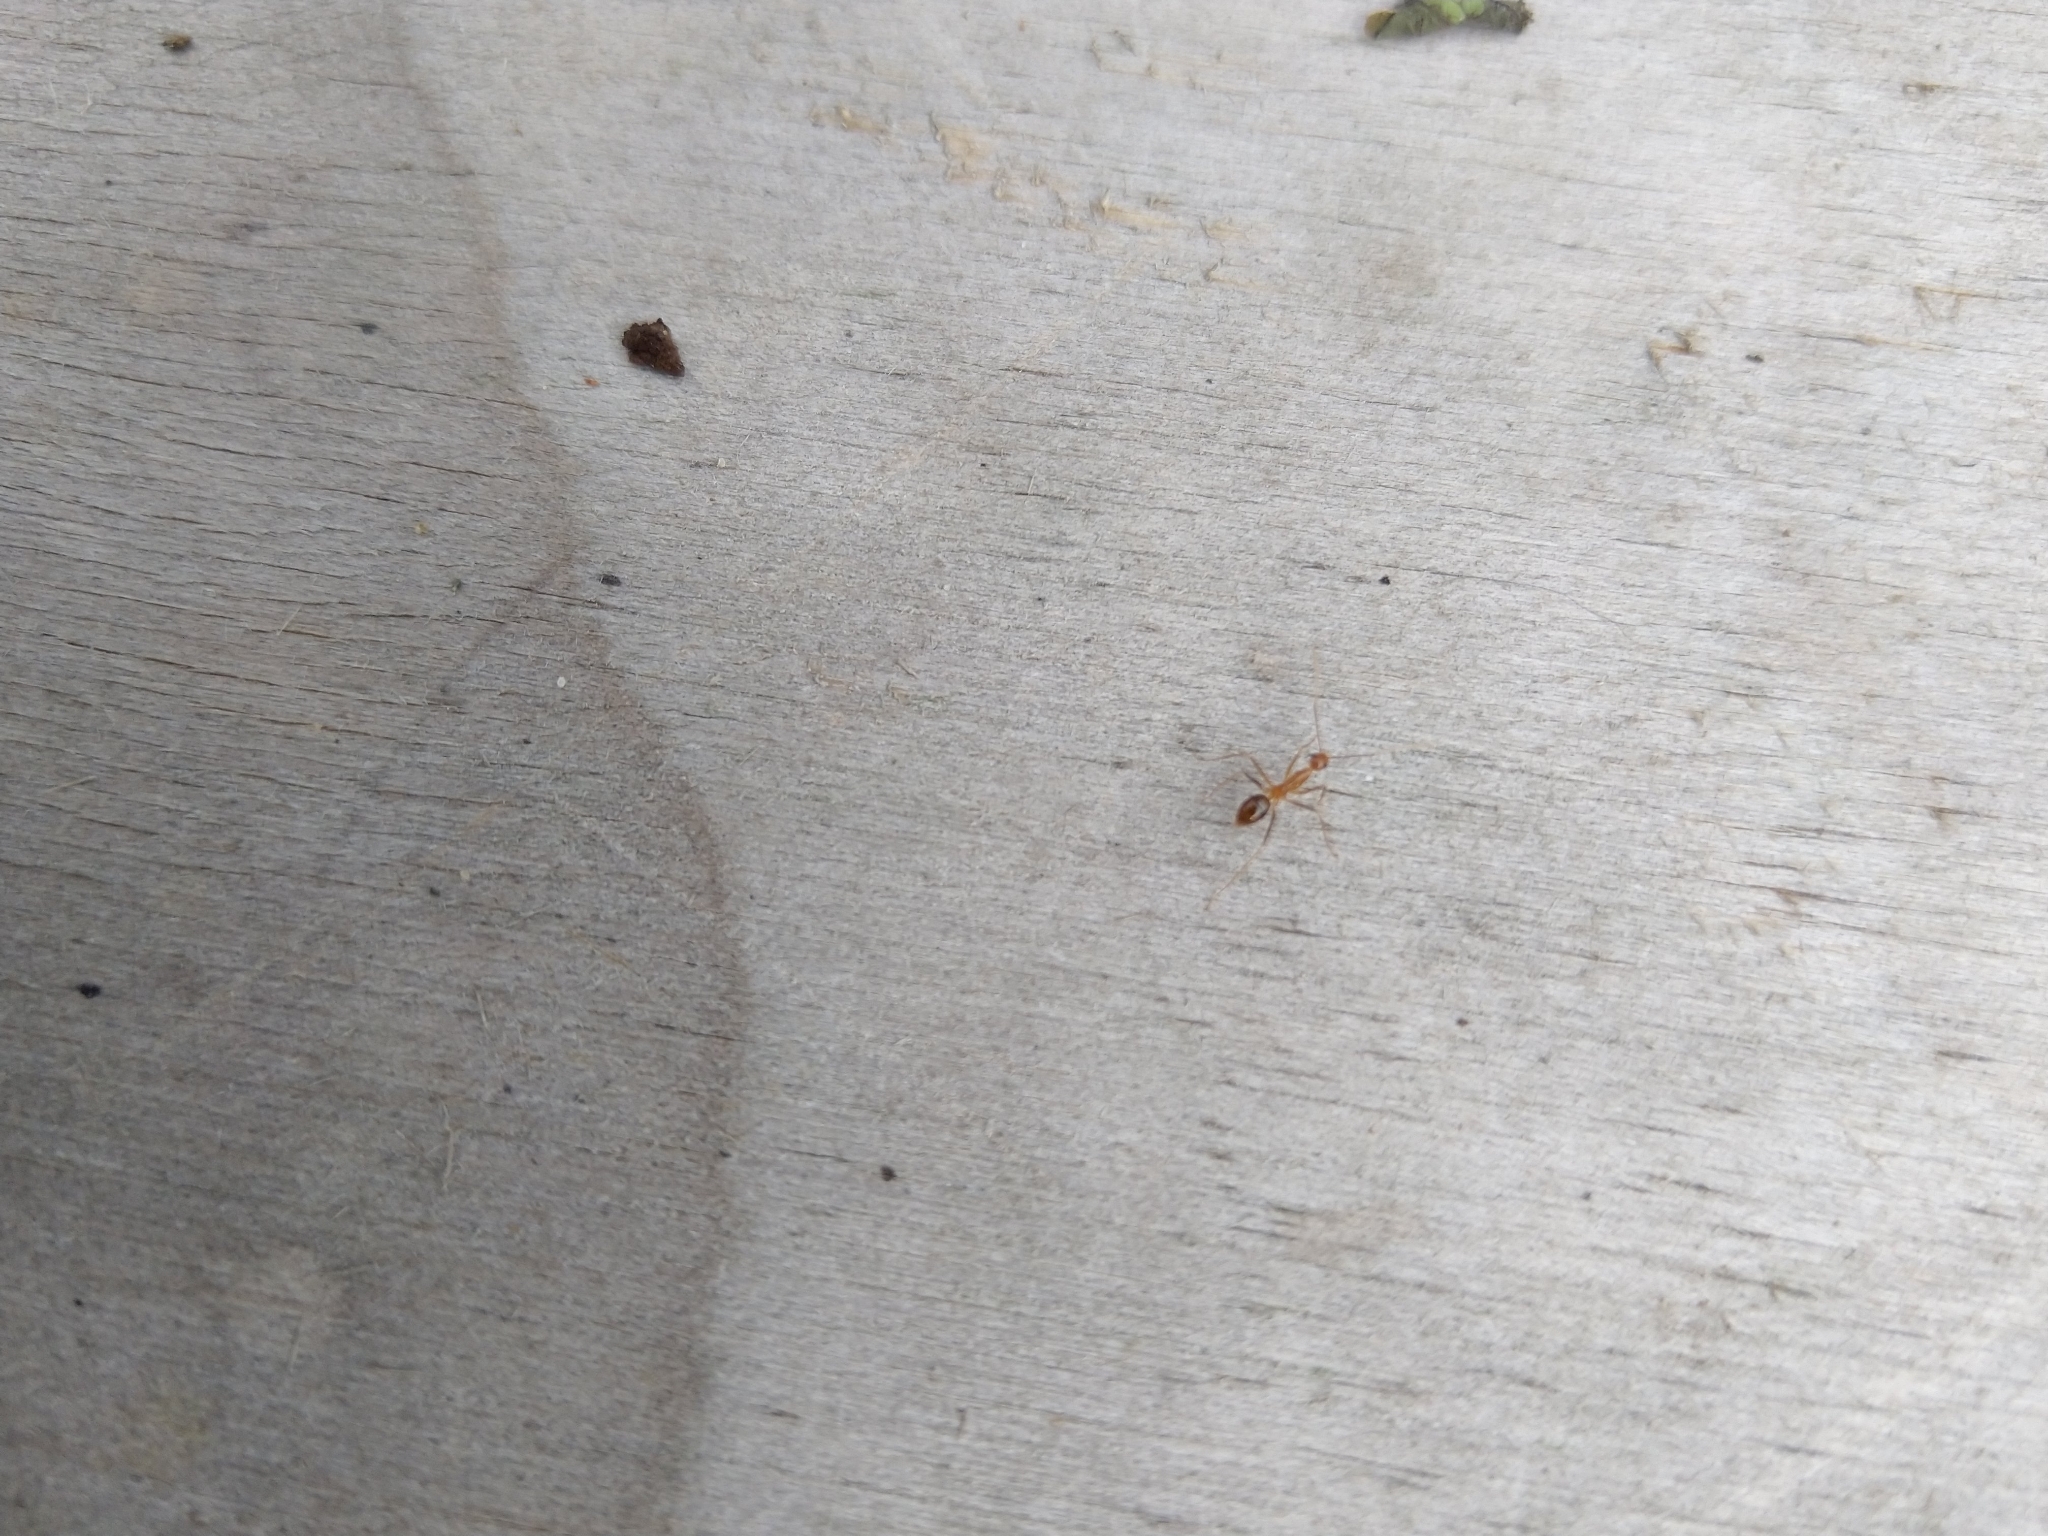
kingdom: Animalia
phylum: Arthropoda
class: Insecta
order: Hymenoptera
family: Formicidae
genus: Anoplolepis
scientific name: Anoplolepis gracilipes
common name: Ant
